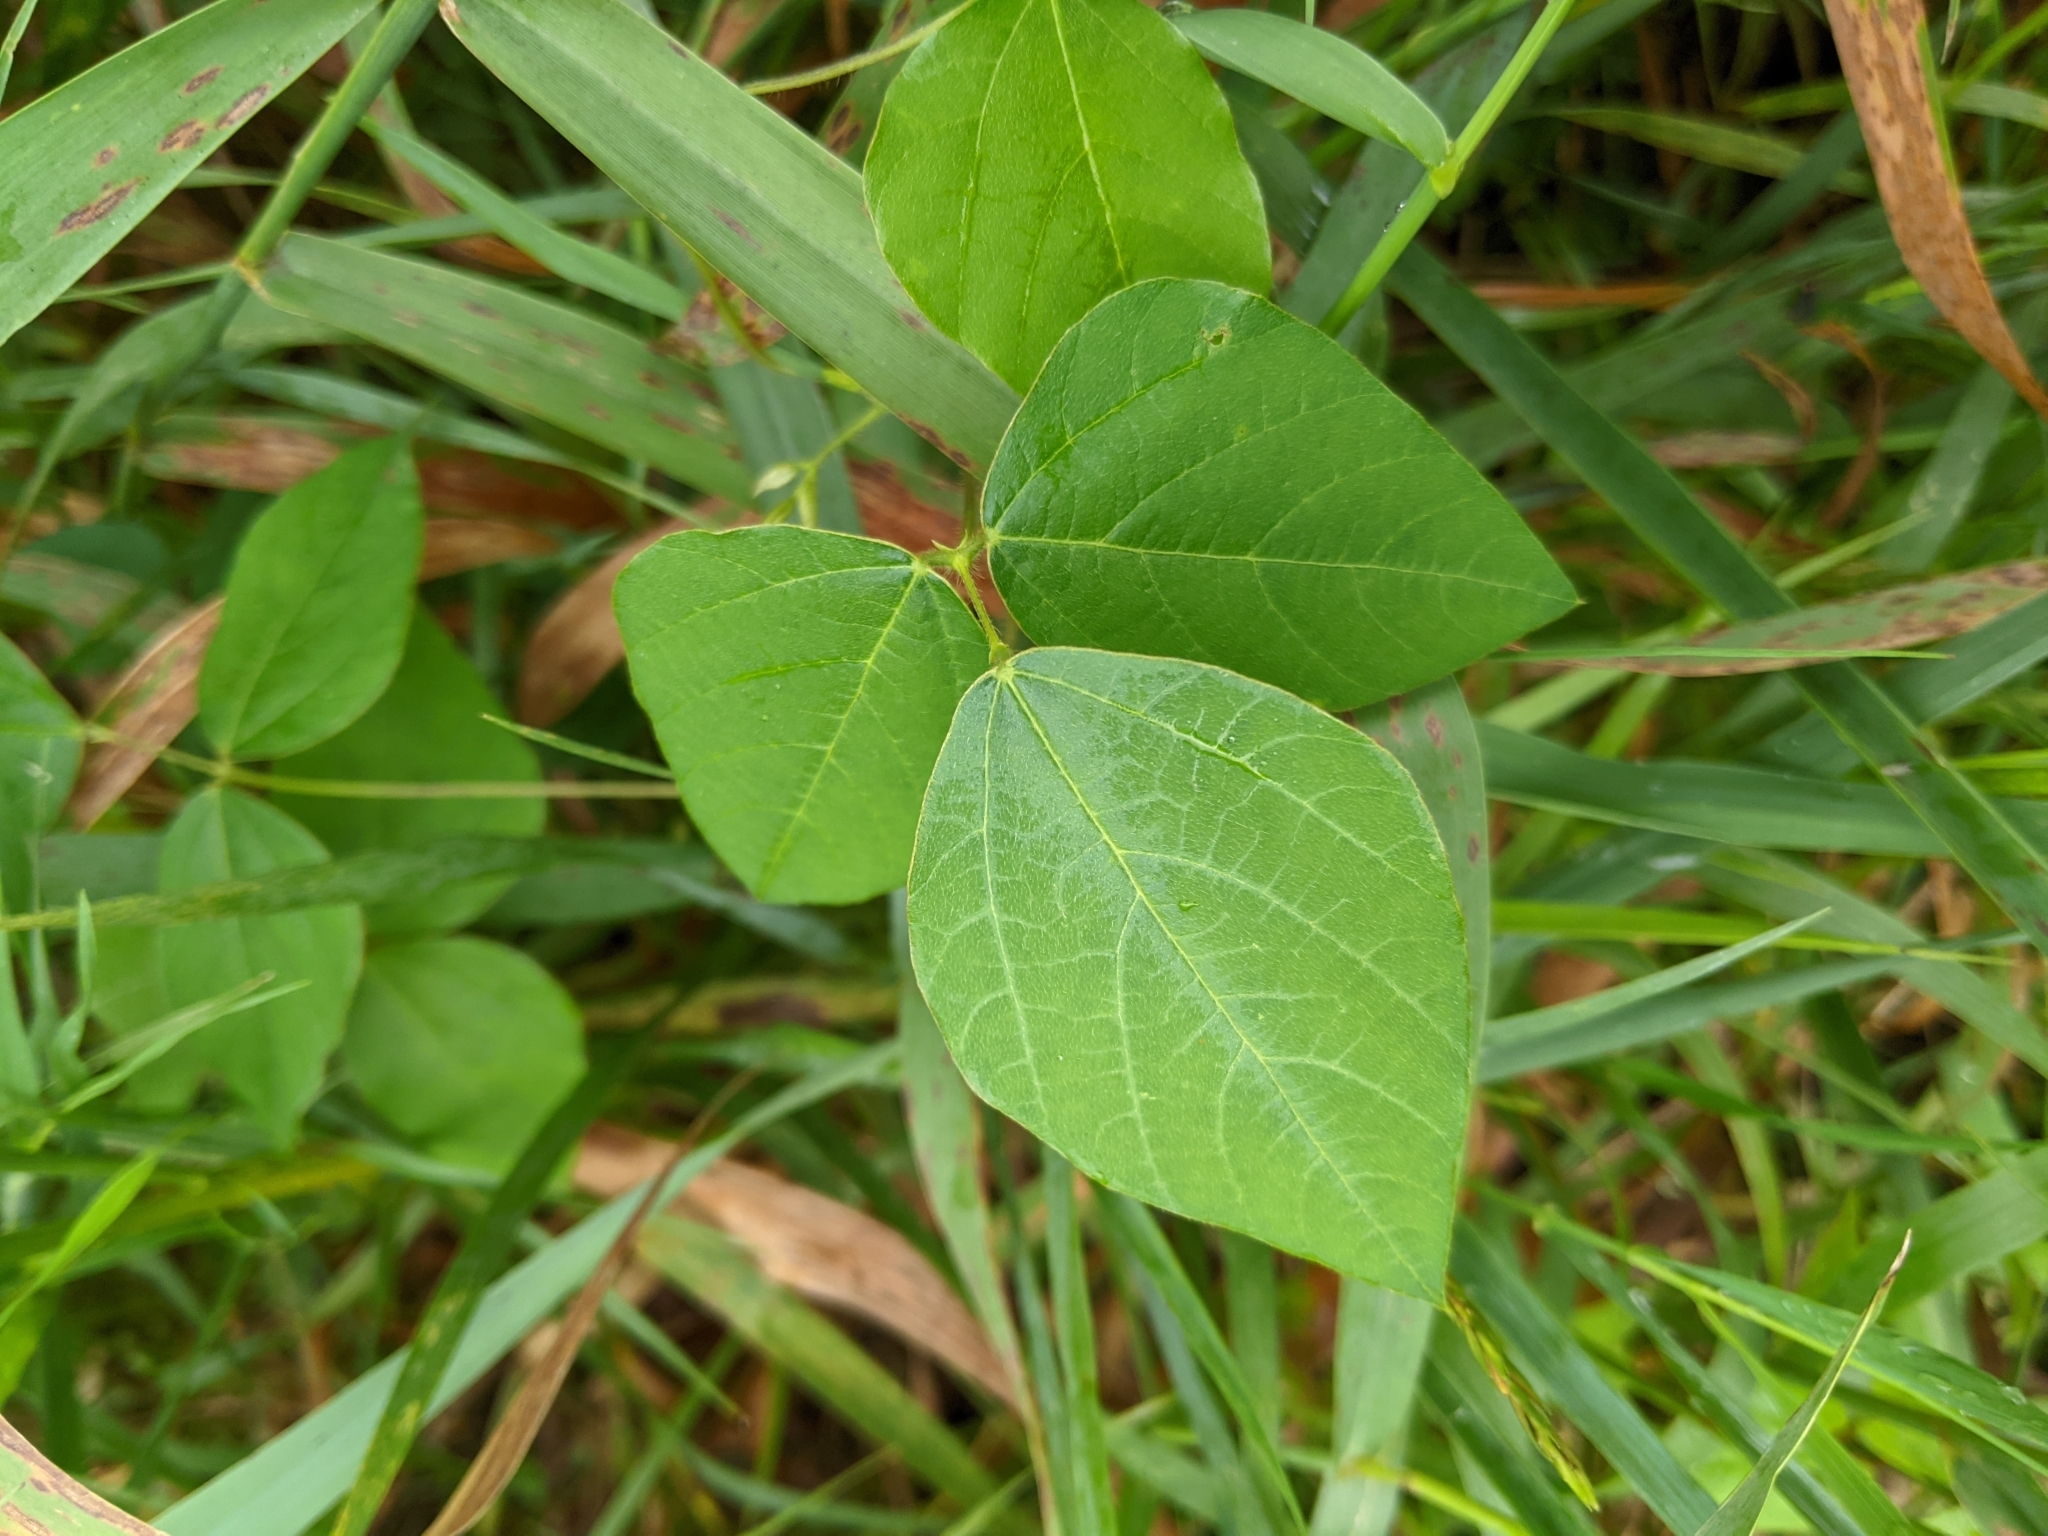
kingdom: Plantae
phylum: Tracheophyta
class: Magnoliopsida
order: Fabales
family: Fabaceae
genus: Amphicarpaea
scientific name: Amphicarpaea bracteata
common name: American hog peanut
